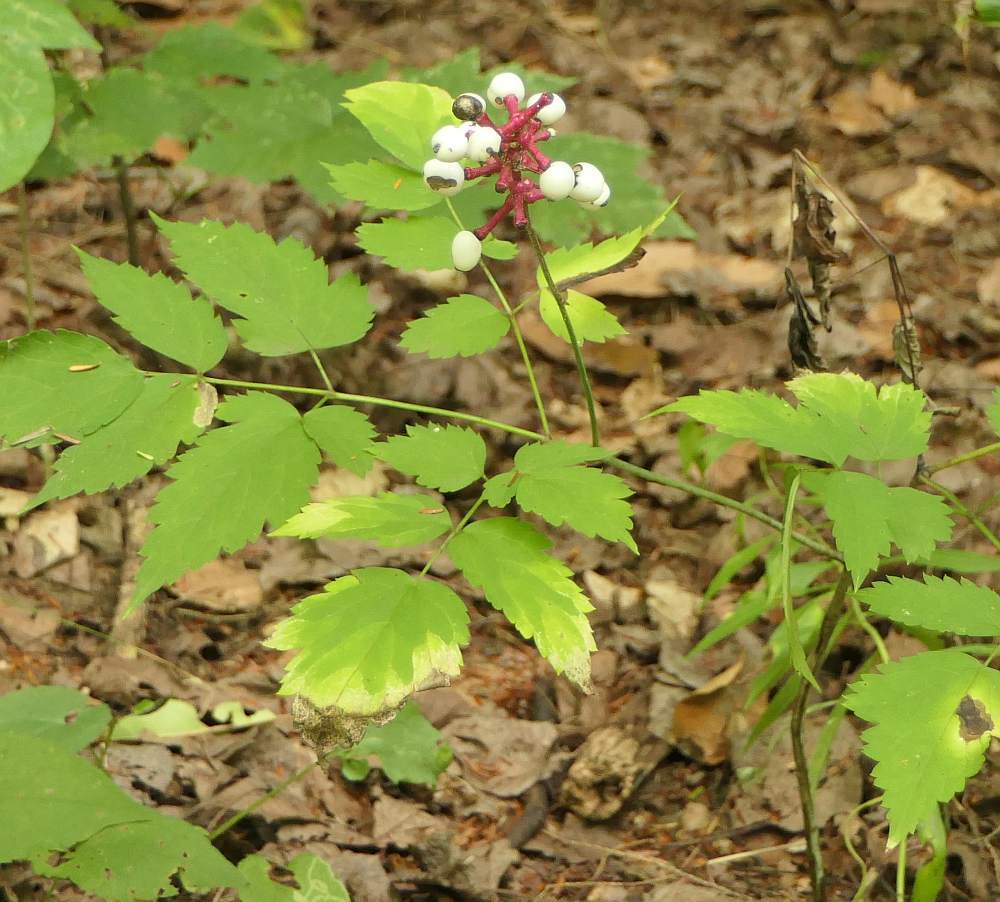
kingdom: Plantae
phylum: Tracheophyta
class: Magnoliopsida
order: Ranunculales
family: Ranunculaceae
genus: Actaea
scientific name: Actaea pachypoda
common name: Doll's-eyes
